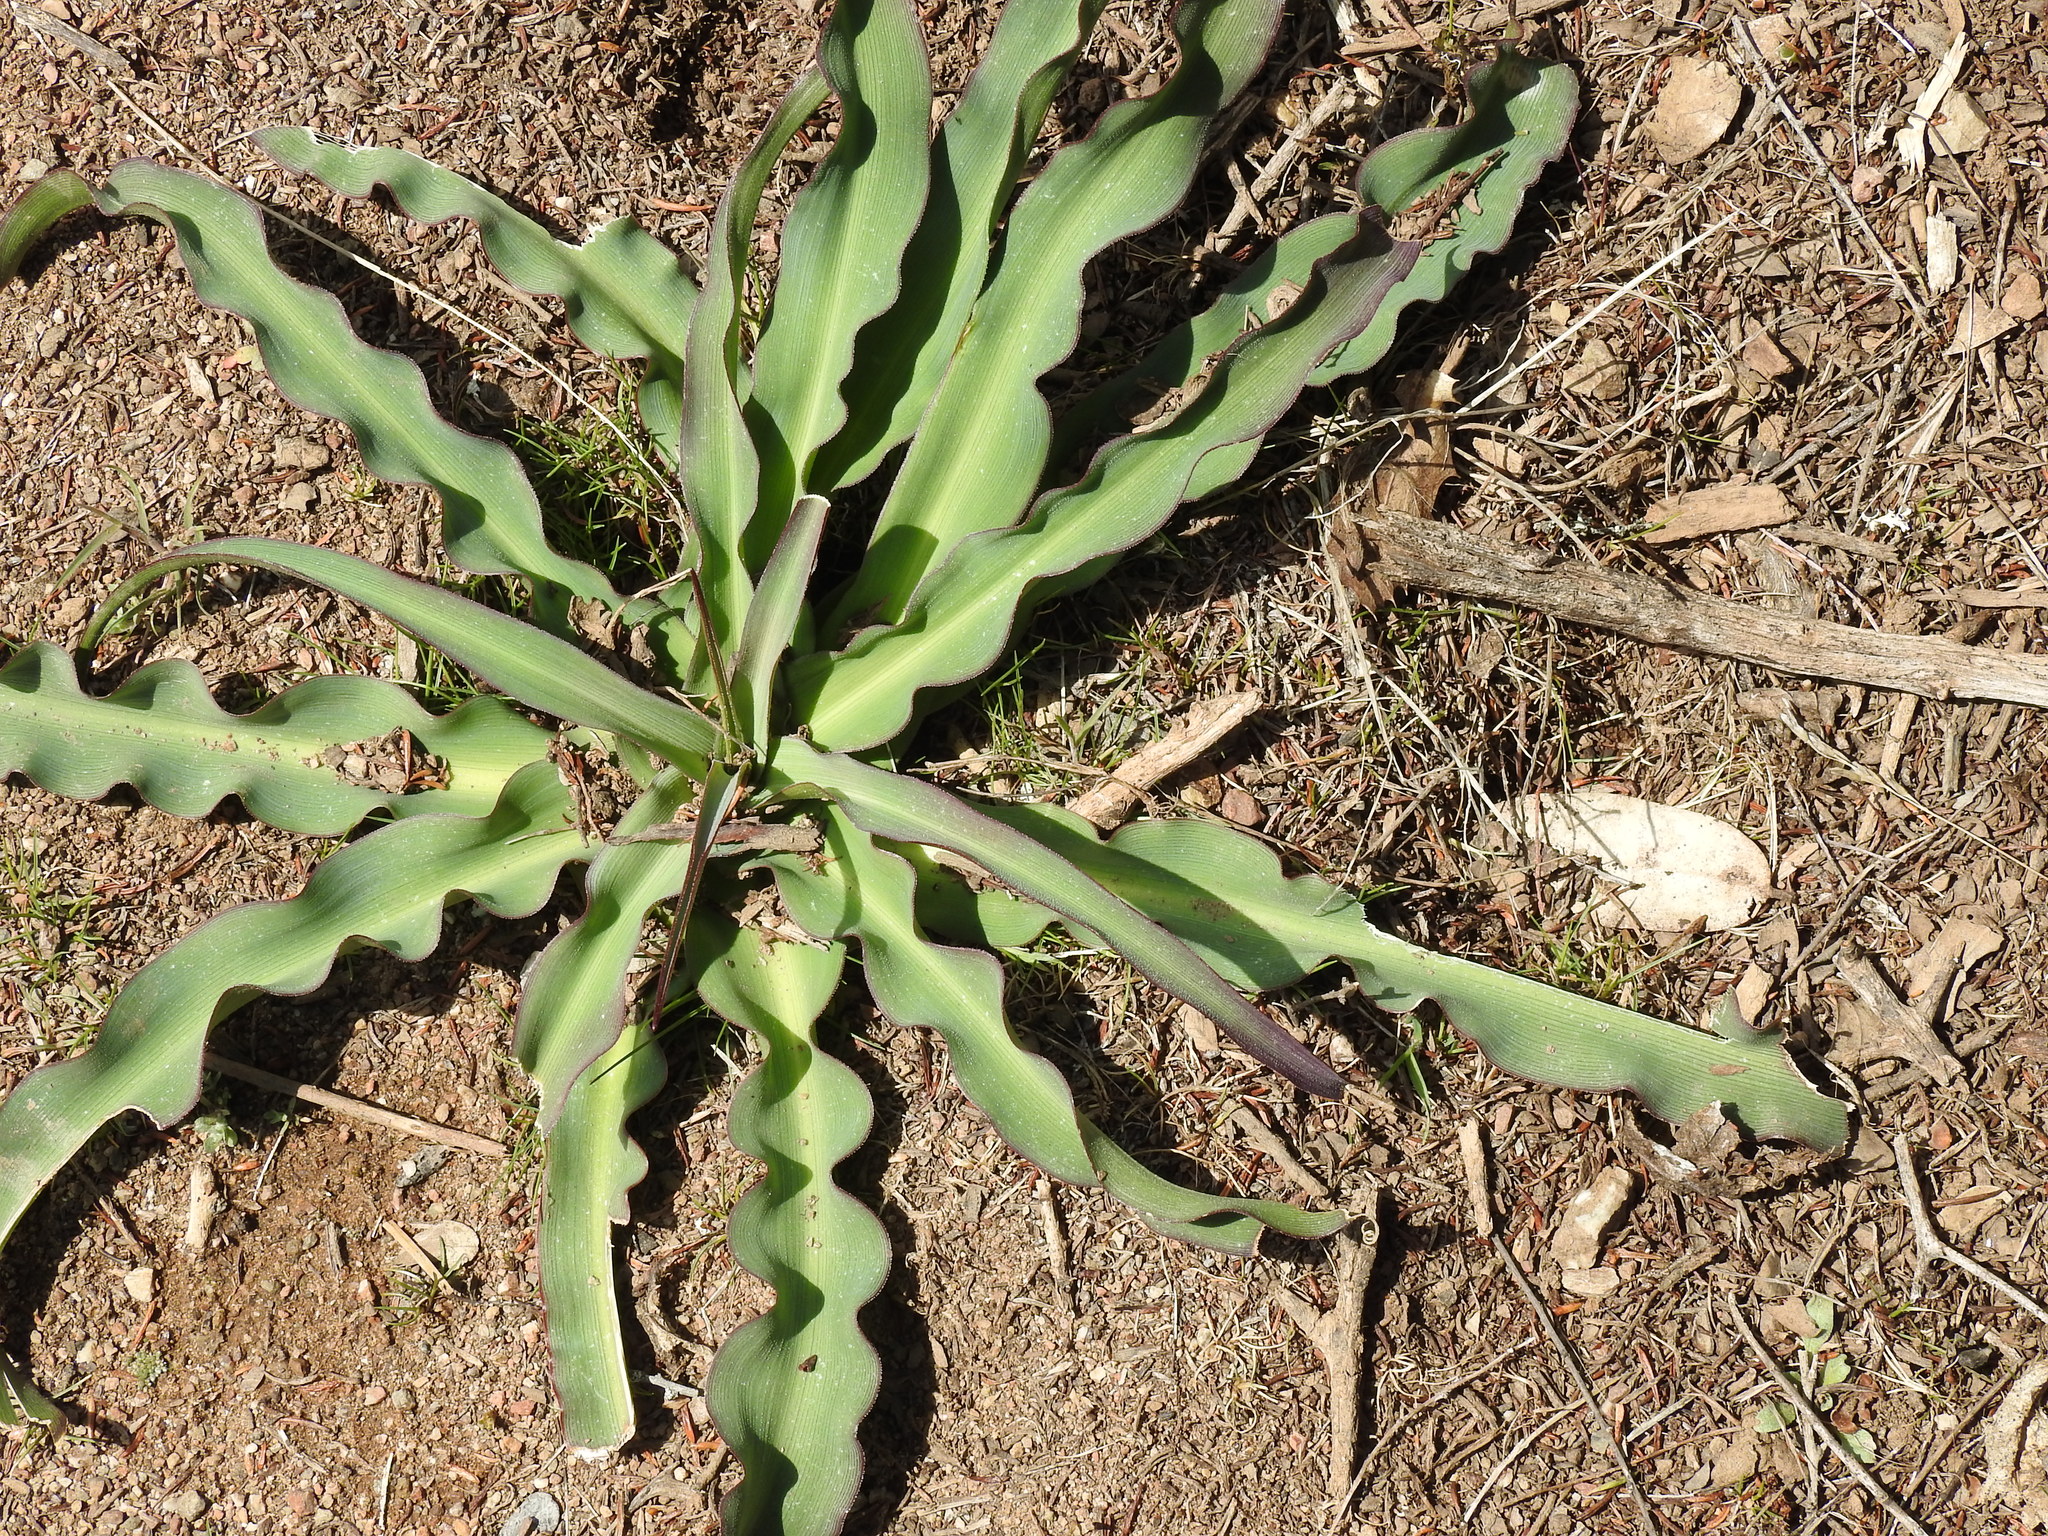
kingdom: Plantae
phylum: Tracheophyta
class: Liliopsida
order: Asparagales
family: Asparagaceae
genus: Chlorogalum
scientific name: Chlorogalum pomeridianum
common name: Amole
